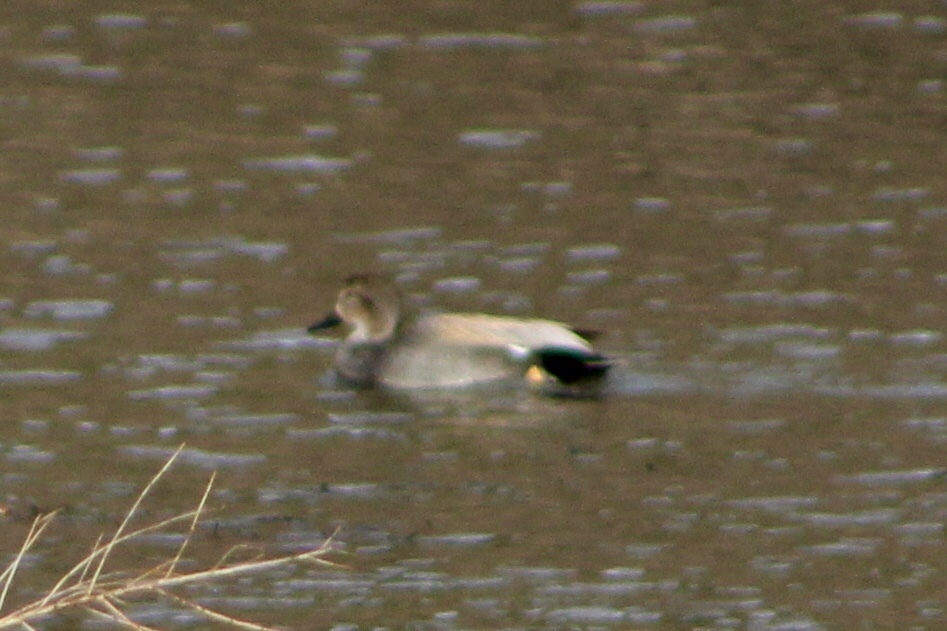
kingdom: Animalia
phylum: Chordata
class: Aves
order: Anseriformes
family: Anatidae
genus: Mareca
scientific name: Mareca strepera
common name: Gadwall
